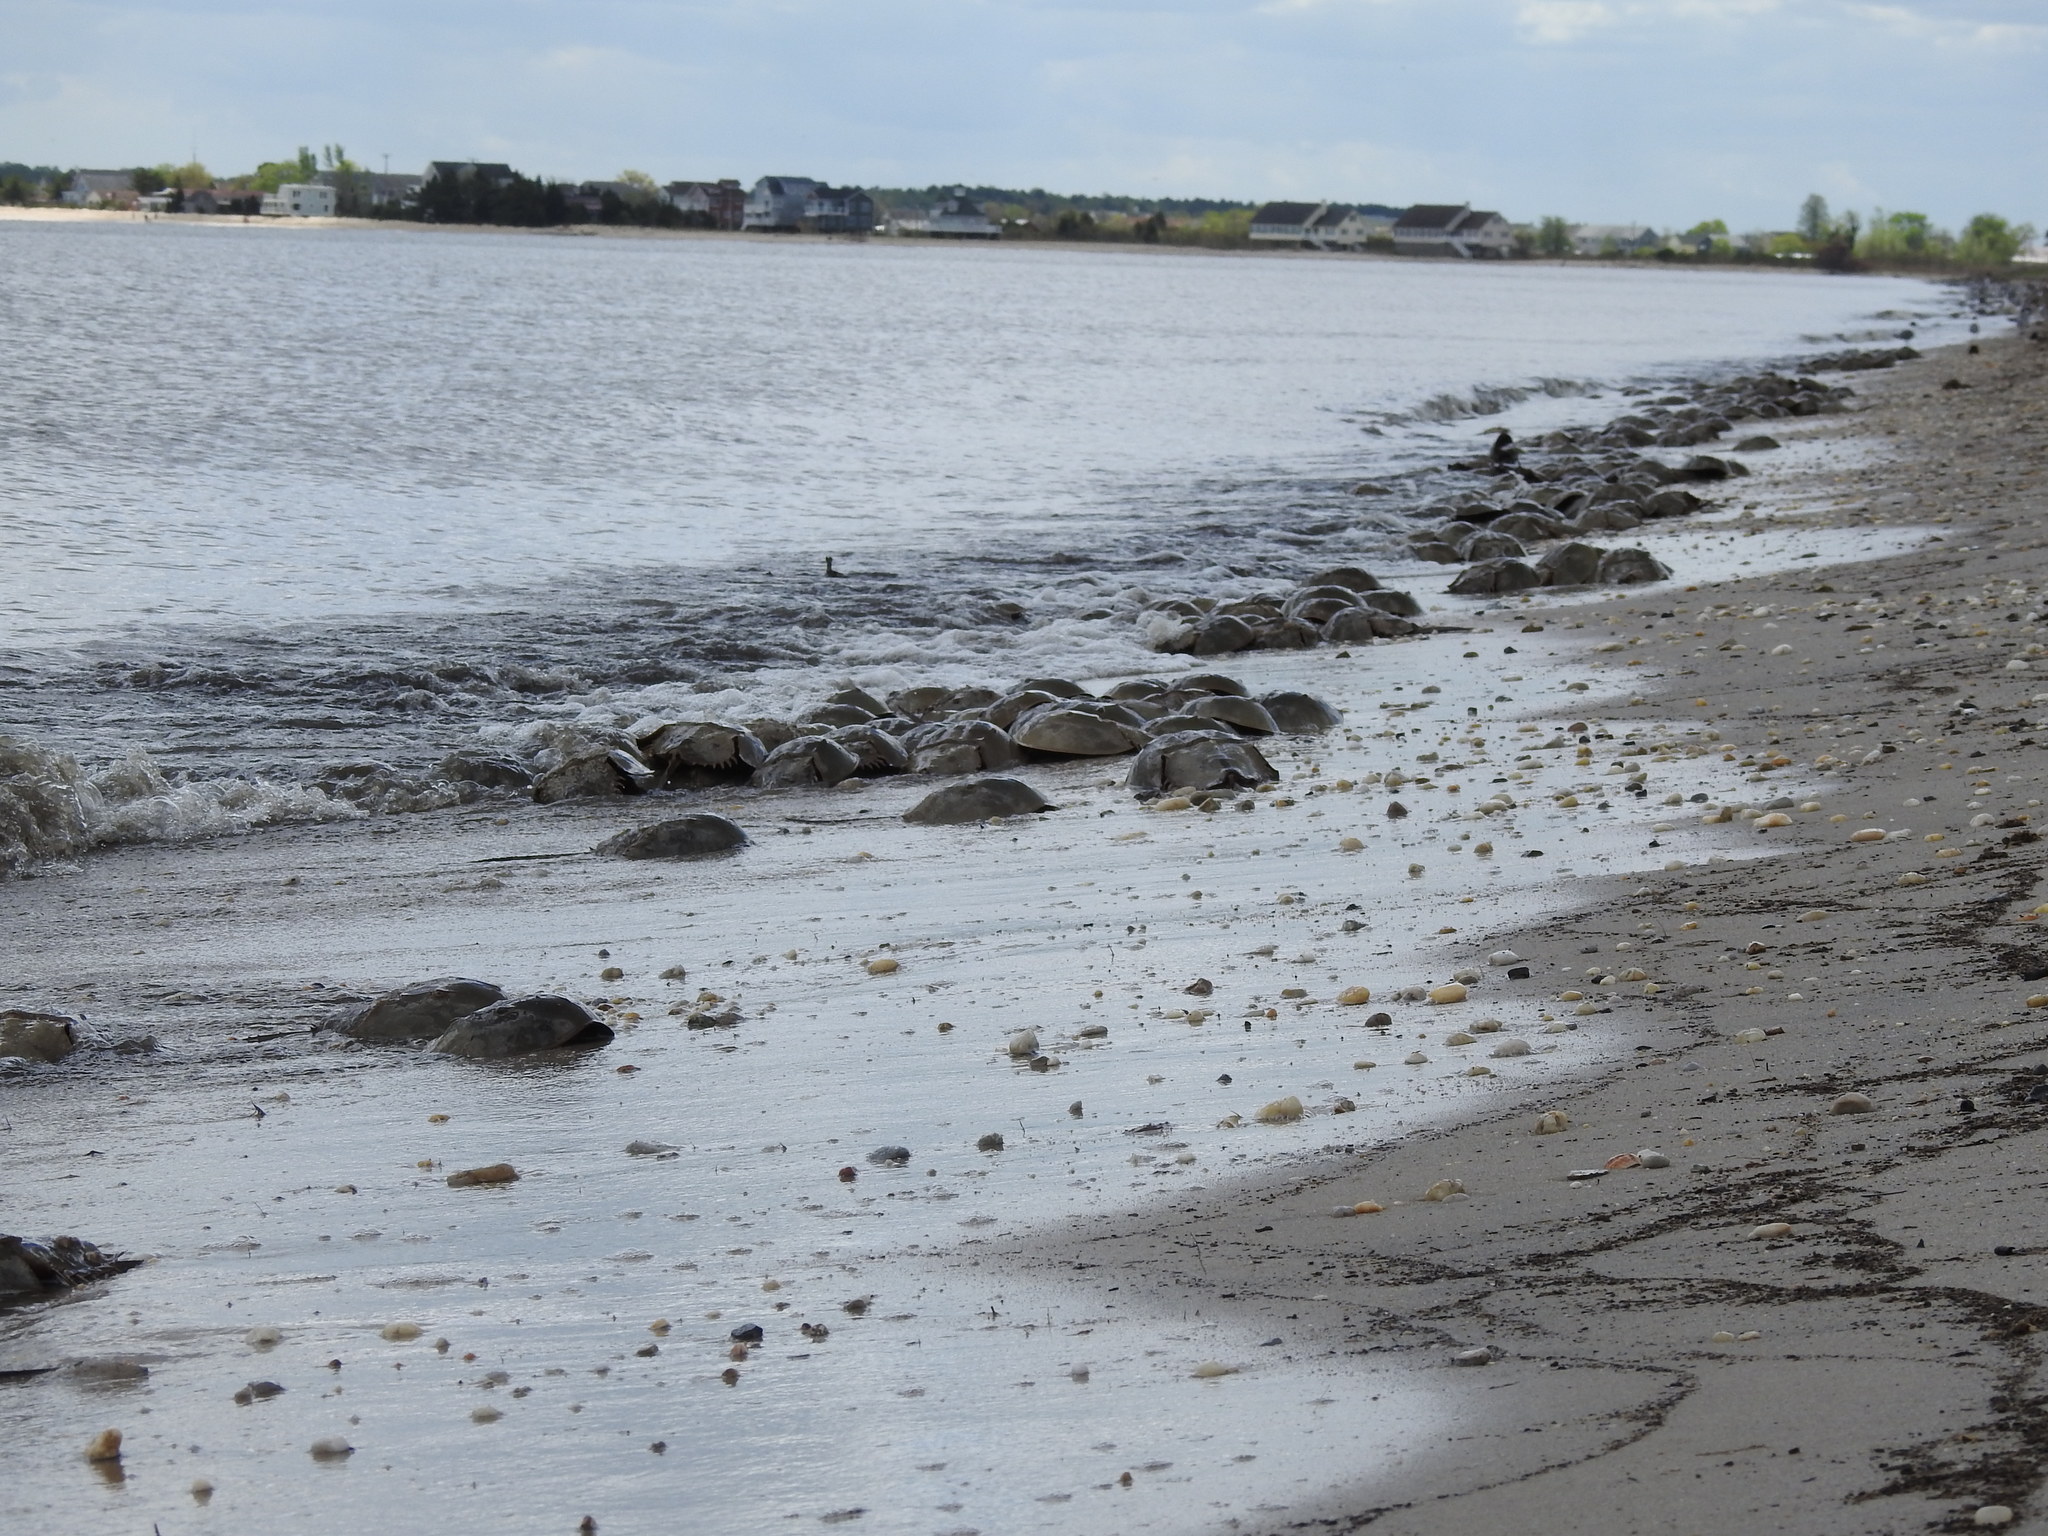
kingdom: Animalia
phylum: Arthropoda
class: Merostomata
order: Xiphosurida
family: Limulidae
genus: Limulus
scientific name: Limulus polyphemus
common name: Horseshoe crab
